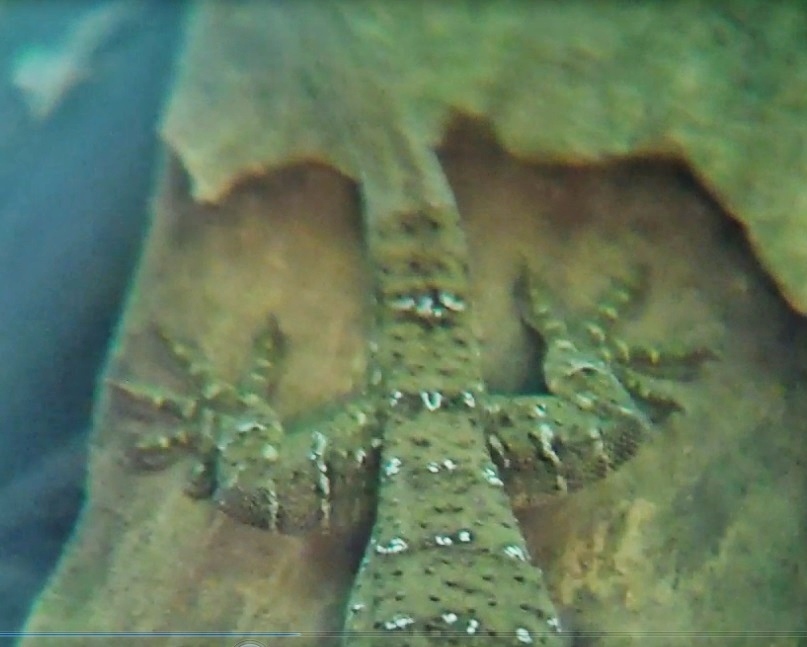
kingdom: Animalia
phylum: Chordata
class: Squamata
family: Gekkonidae
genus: Gekko
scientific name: Gekko smithii
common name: Large forest gecko
